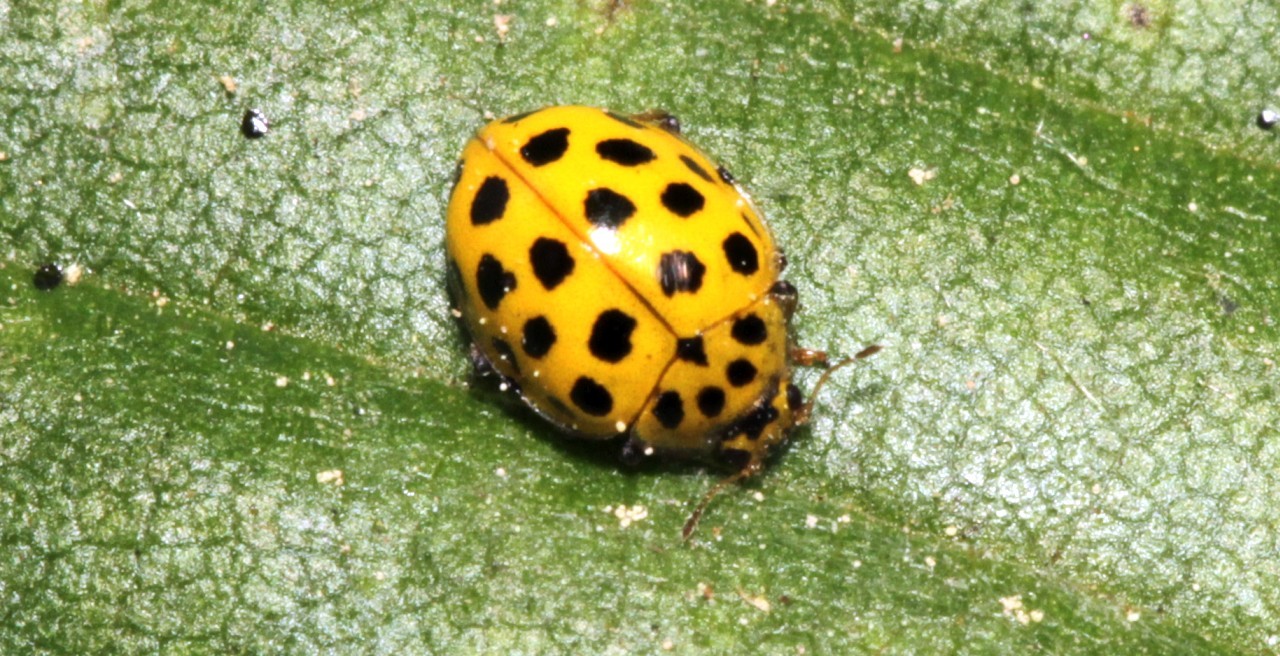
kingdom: Animalia
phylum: Arthropoda
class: Insecta
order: Coleoptera
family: Coccinellidae
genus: Psyllobora
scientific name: Psyllobora vigintiduopunctata
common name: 22-spot ladybird
